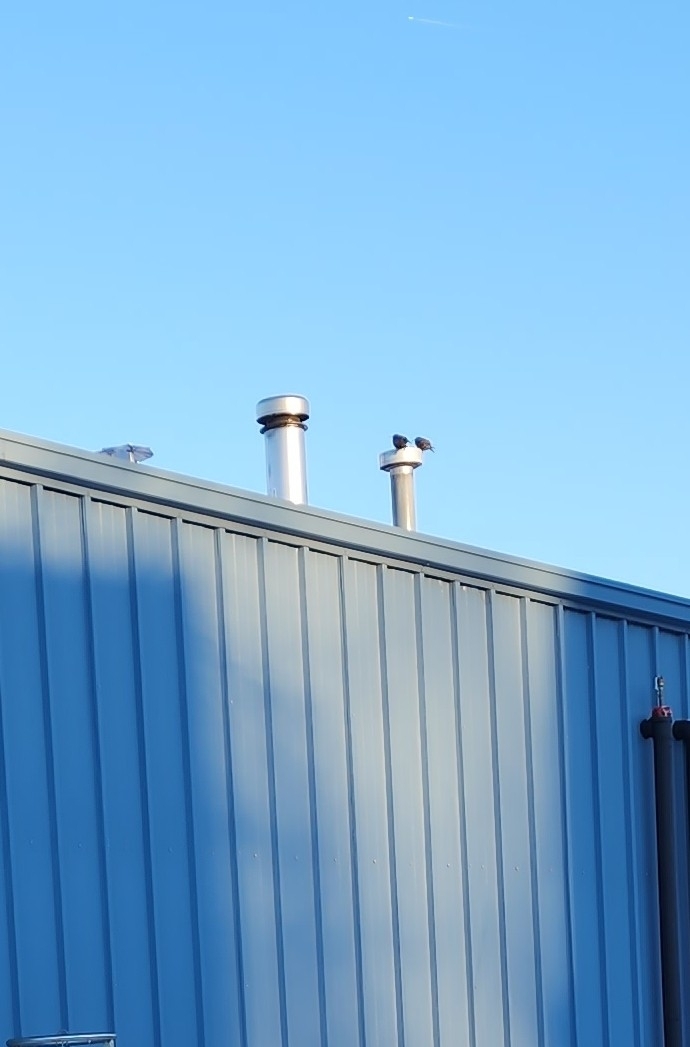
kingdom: Animalia
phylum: Chordata
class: Aves
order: Passeriformes
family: Sturnidae
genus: Sturnus
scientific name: Sturnus vulgaris
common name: Common starling
